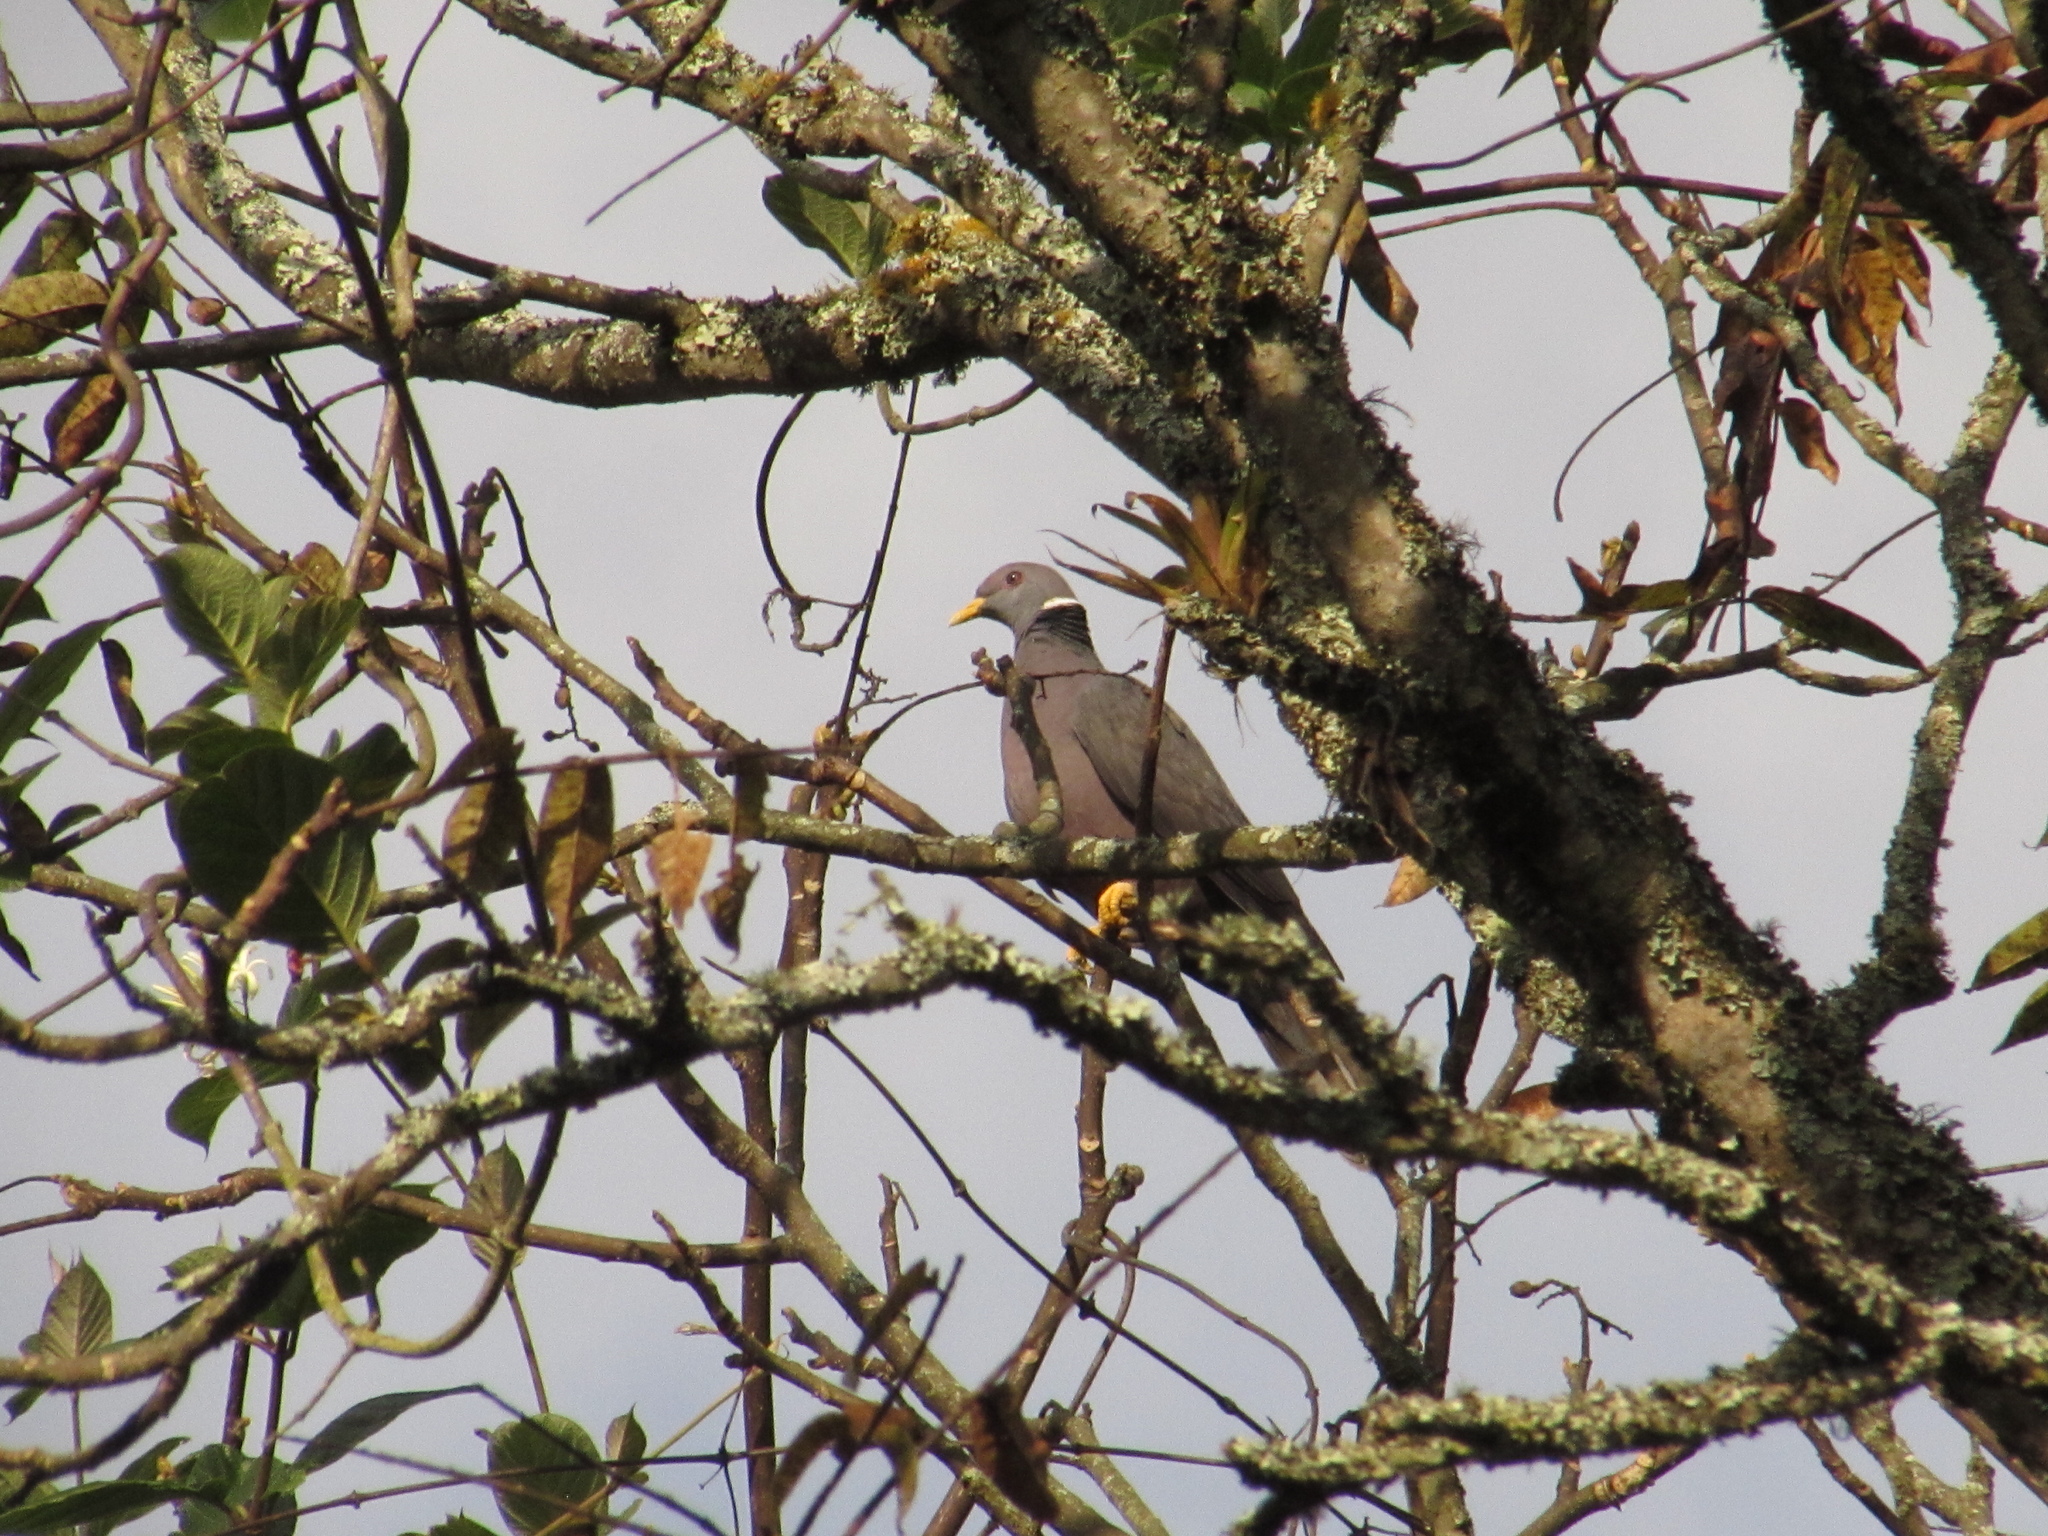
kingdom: Animalia
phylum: Chordata
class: Aves
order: Columbiformes
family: Columbidae
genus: Patagioenas
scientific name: Patagioenas fasciata
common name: Band-tailed pigeon
